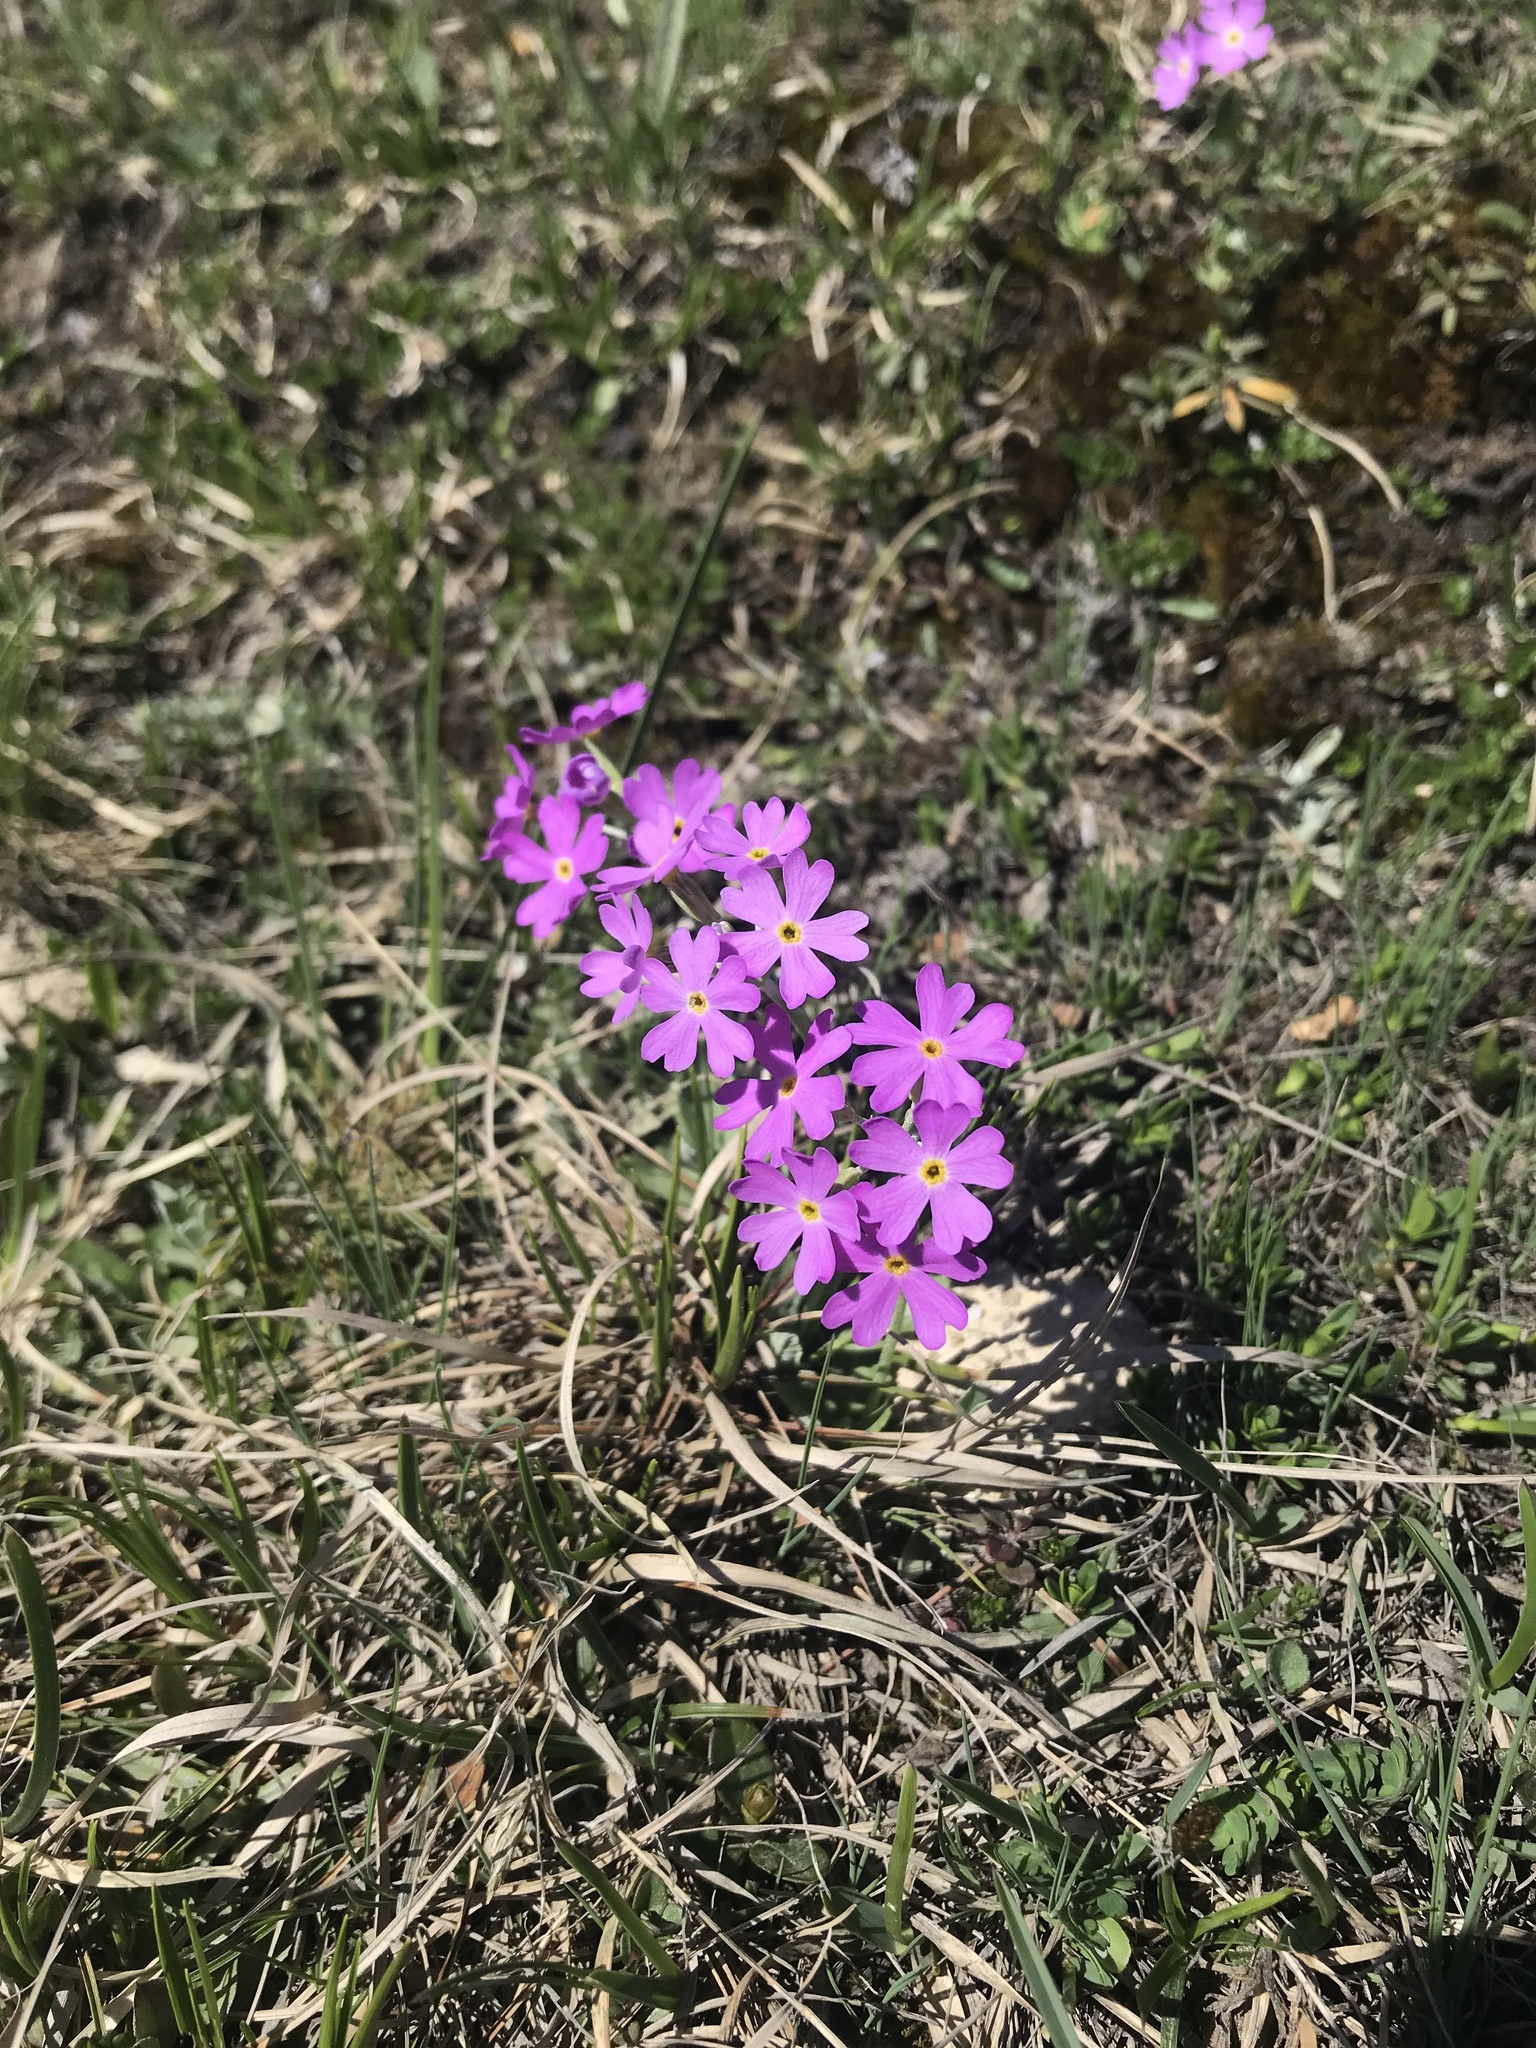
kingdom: Plantae
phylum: Tracheophyta
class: Magnoliopsida
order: Ericales
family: Primulaceae
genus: Primula
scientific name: Primula farinosa
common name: Bird's-eye primrose
